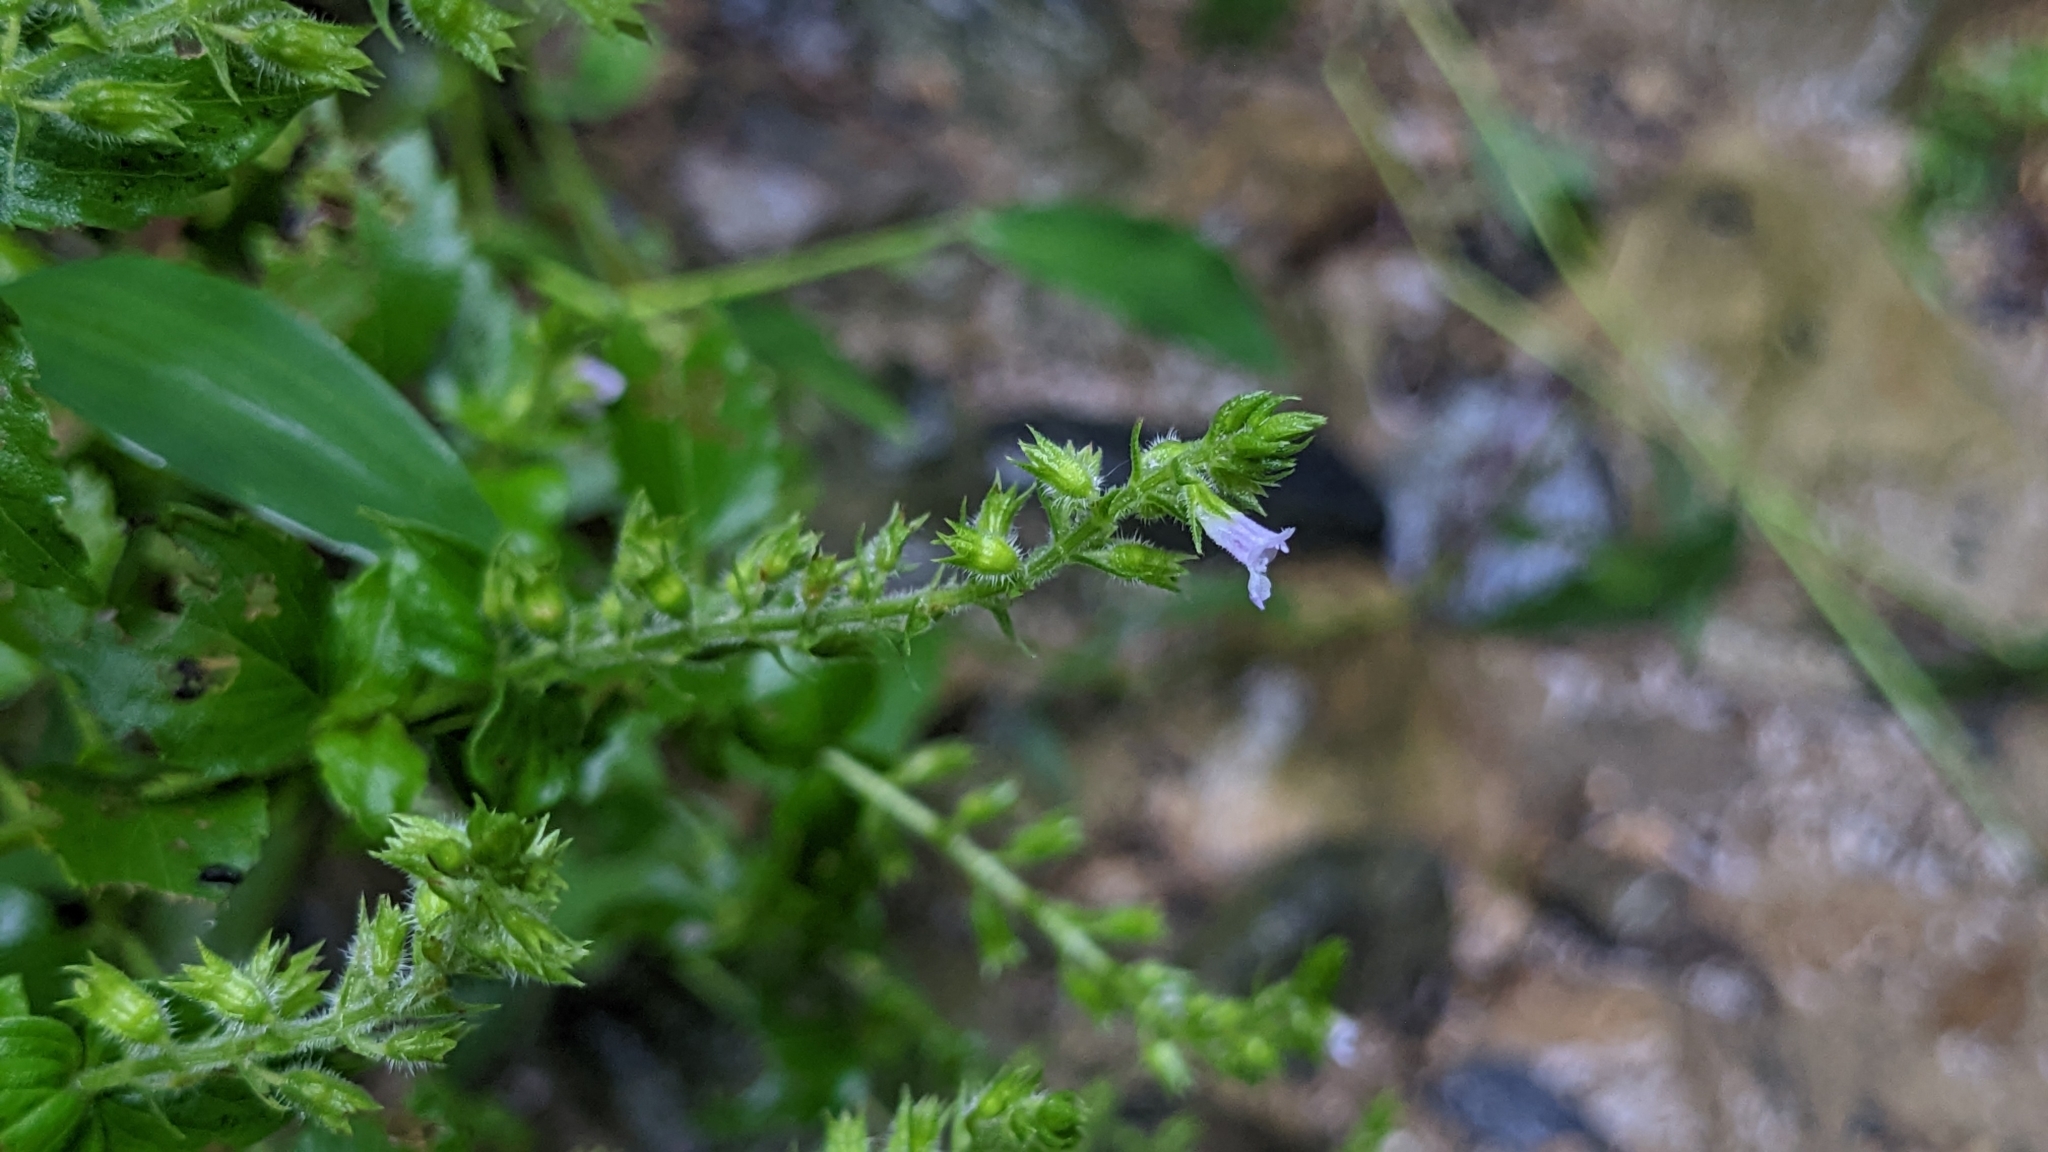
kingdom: Plantae
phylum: Tracheophyta
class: Magnoliopsida
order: Lamiales
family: Lamiaceae
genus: Mosla
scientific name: Mosla scabra
